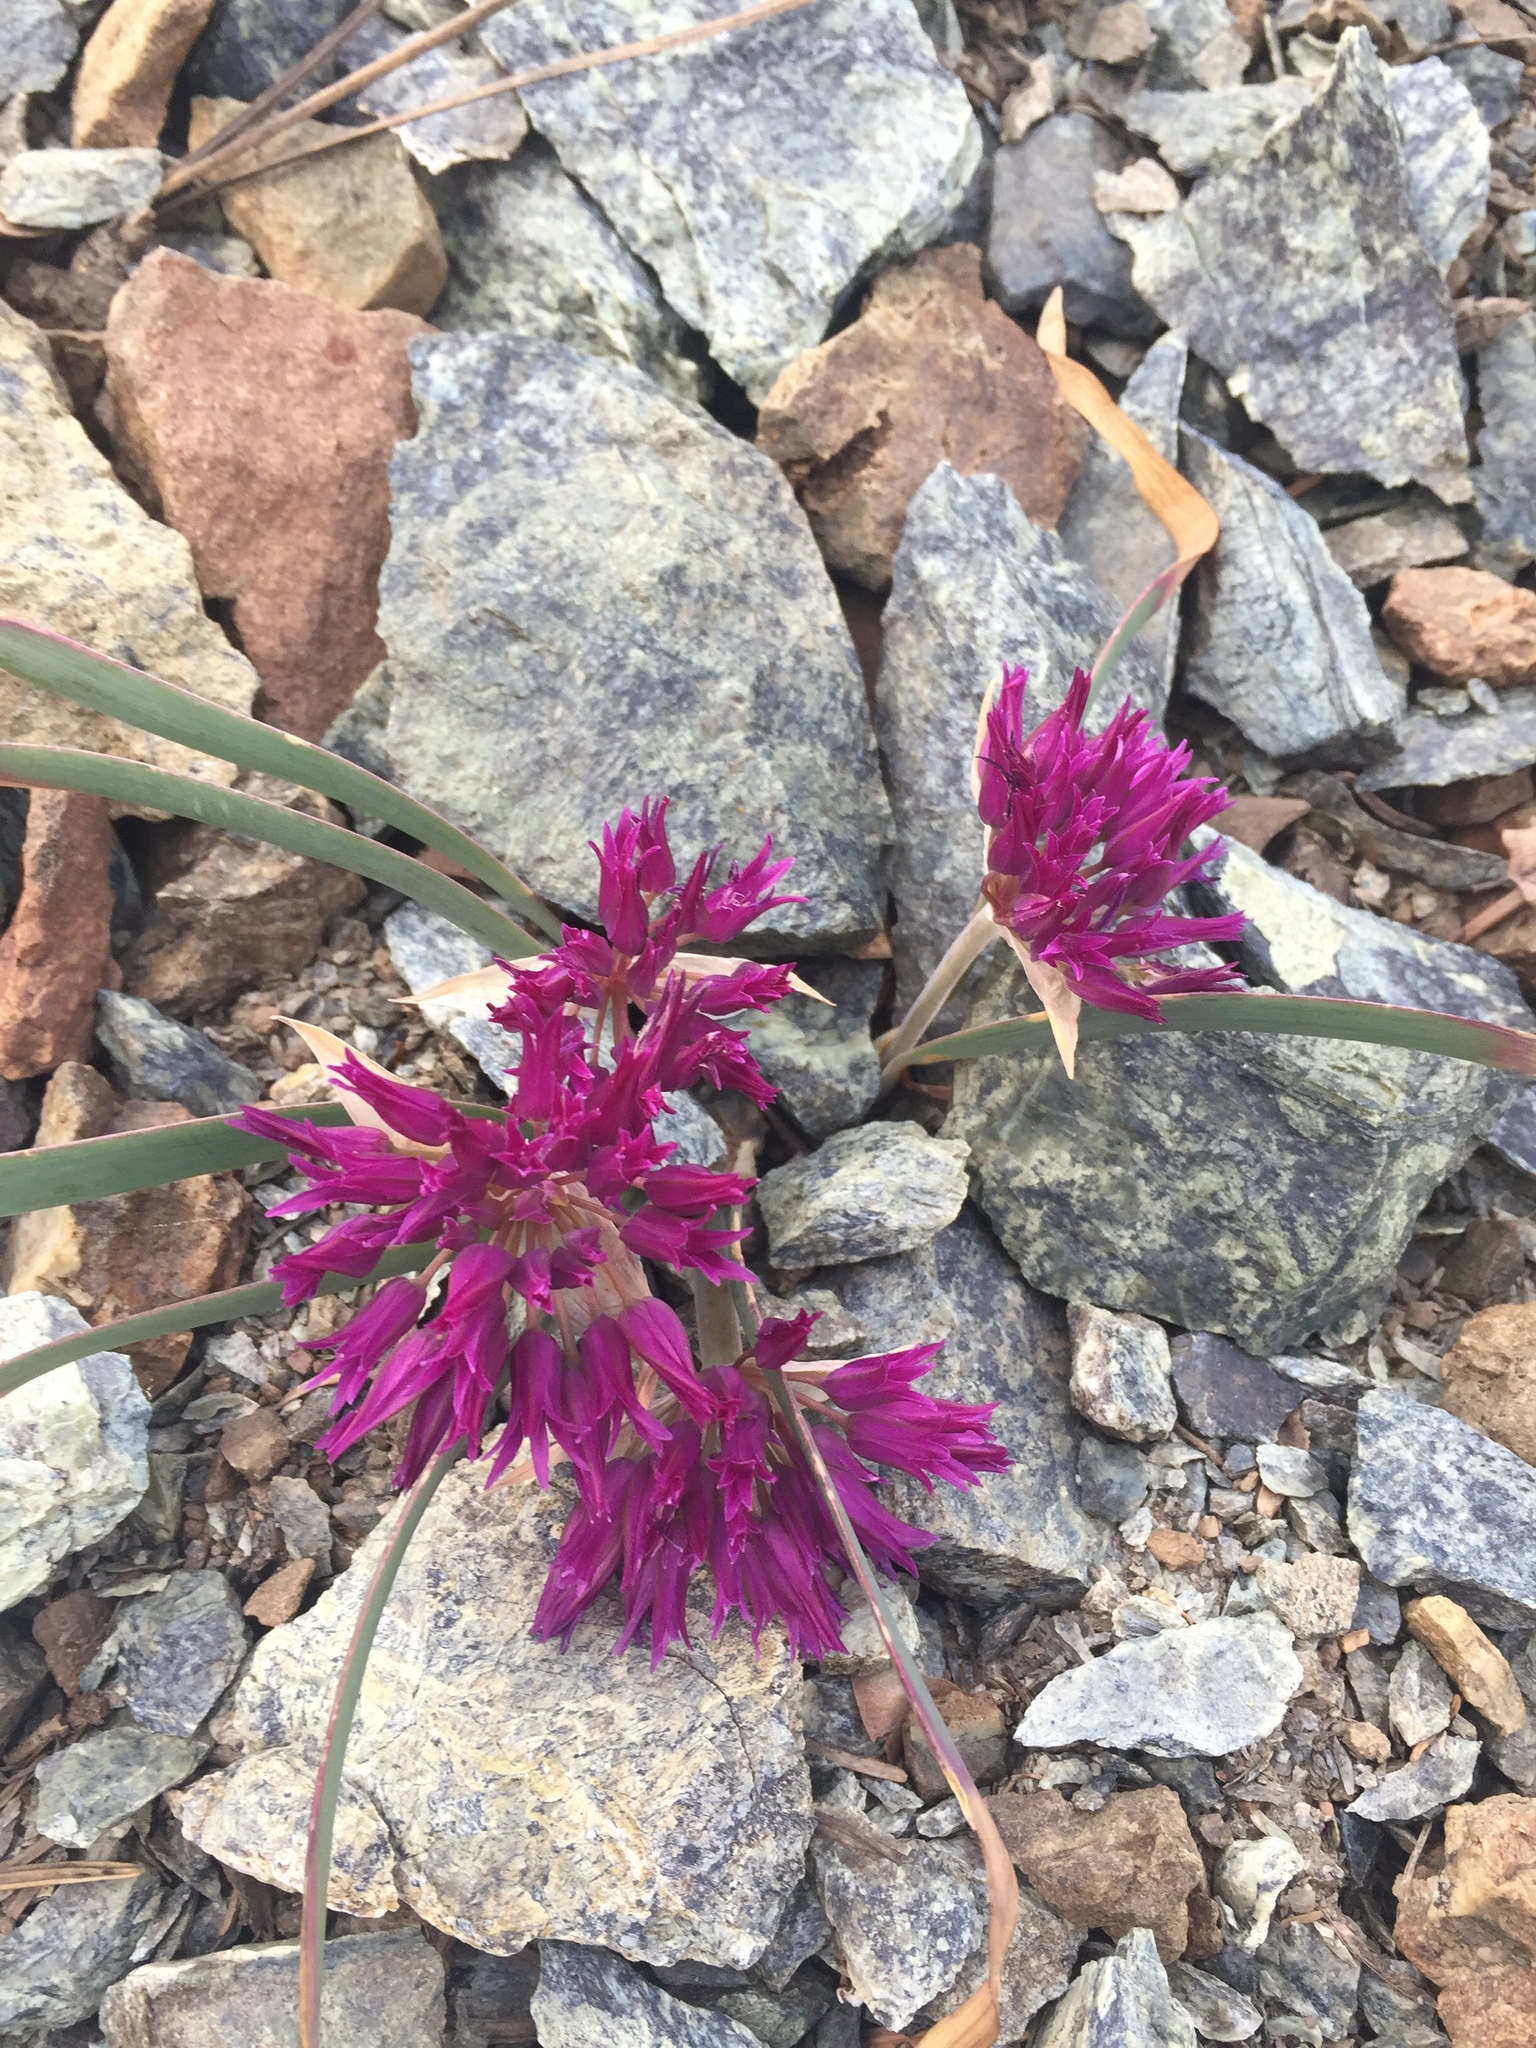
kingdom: Plantae
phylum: Tracheophyta
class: Liliopsida
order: Asparagales
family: Amaryllidaceae
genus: Allium
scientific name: Allium falcifolium
